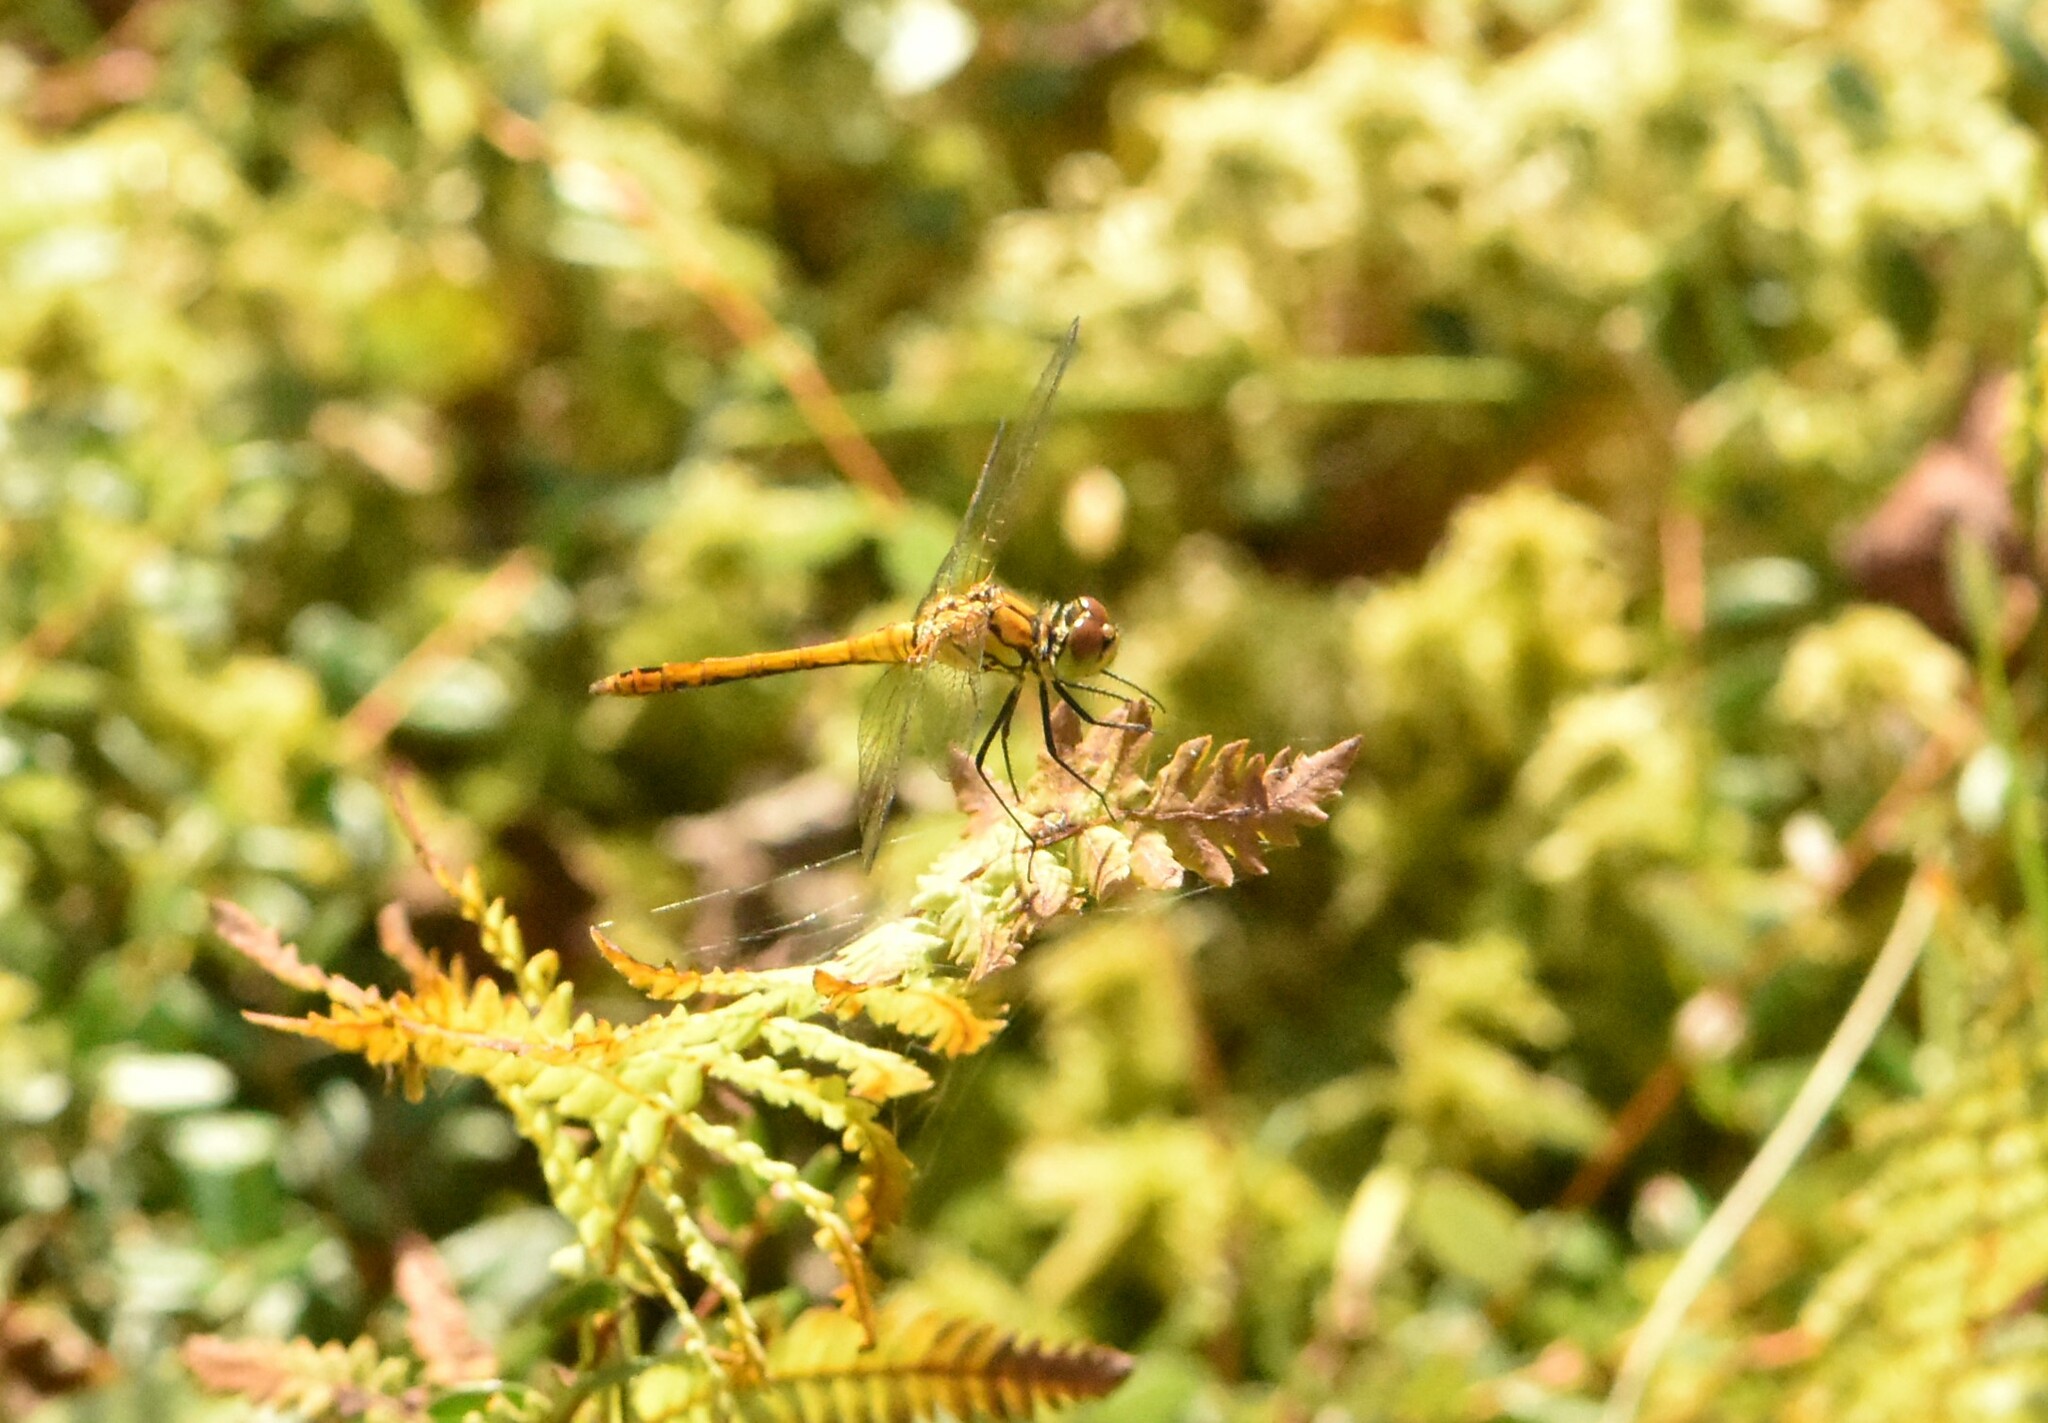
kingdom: Animalia
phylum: Arthropoda
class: Insecta
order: Odonata
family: Libellulidae
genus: Sympetrum
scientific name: Sympetrum sanguineum
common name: Ruddy darter
